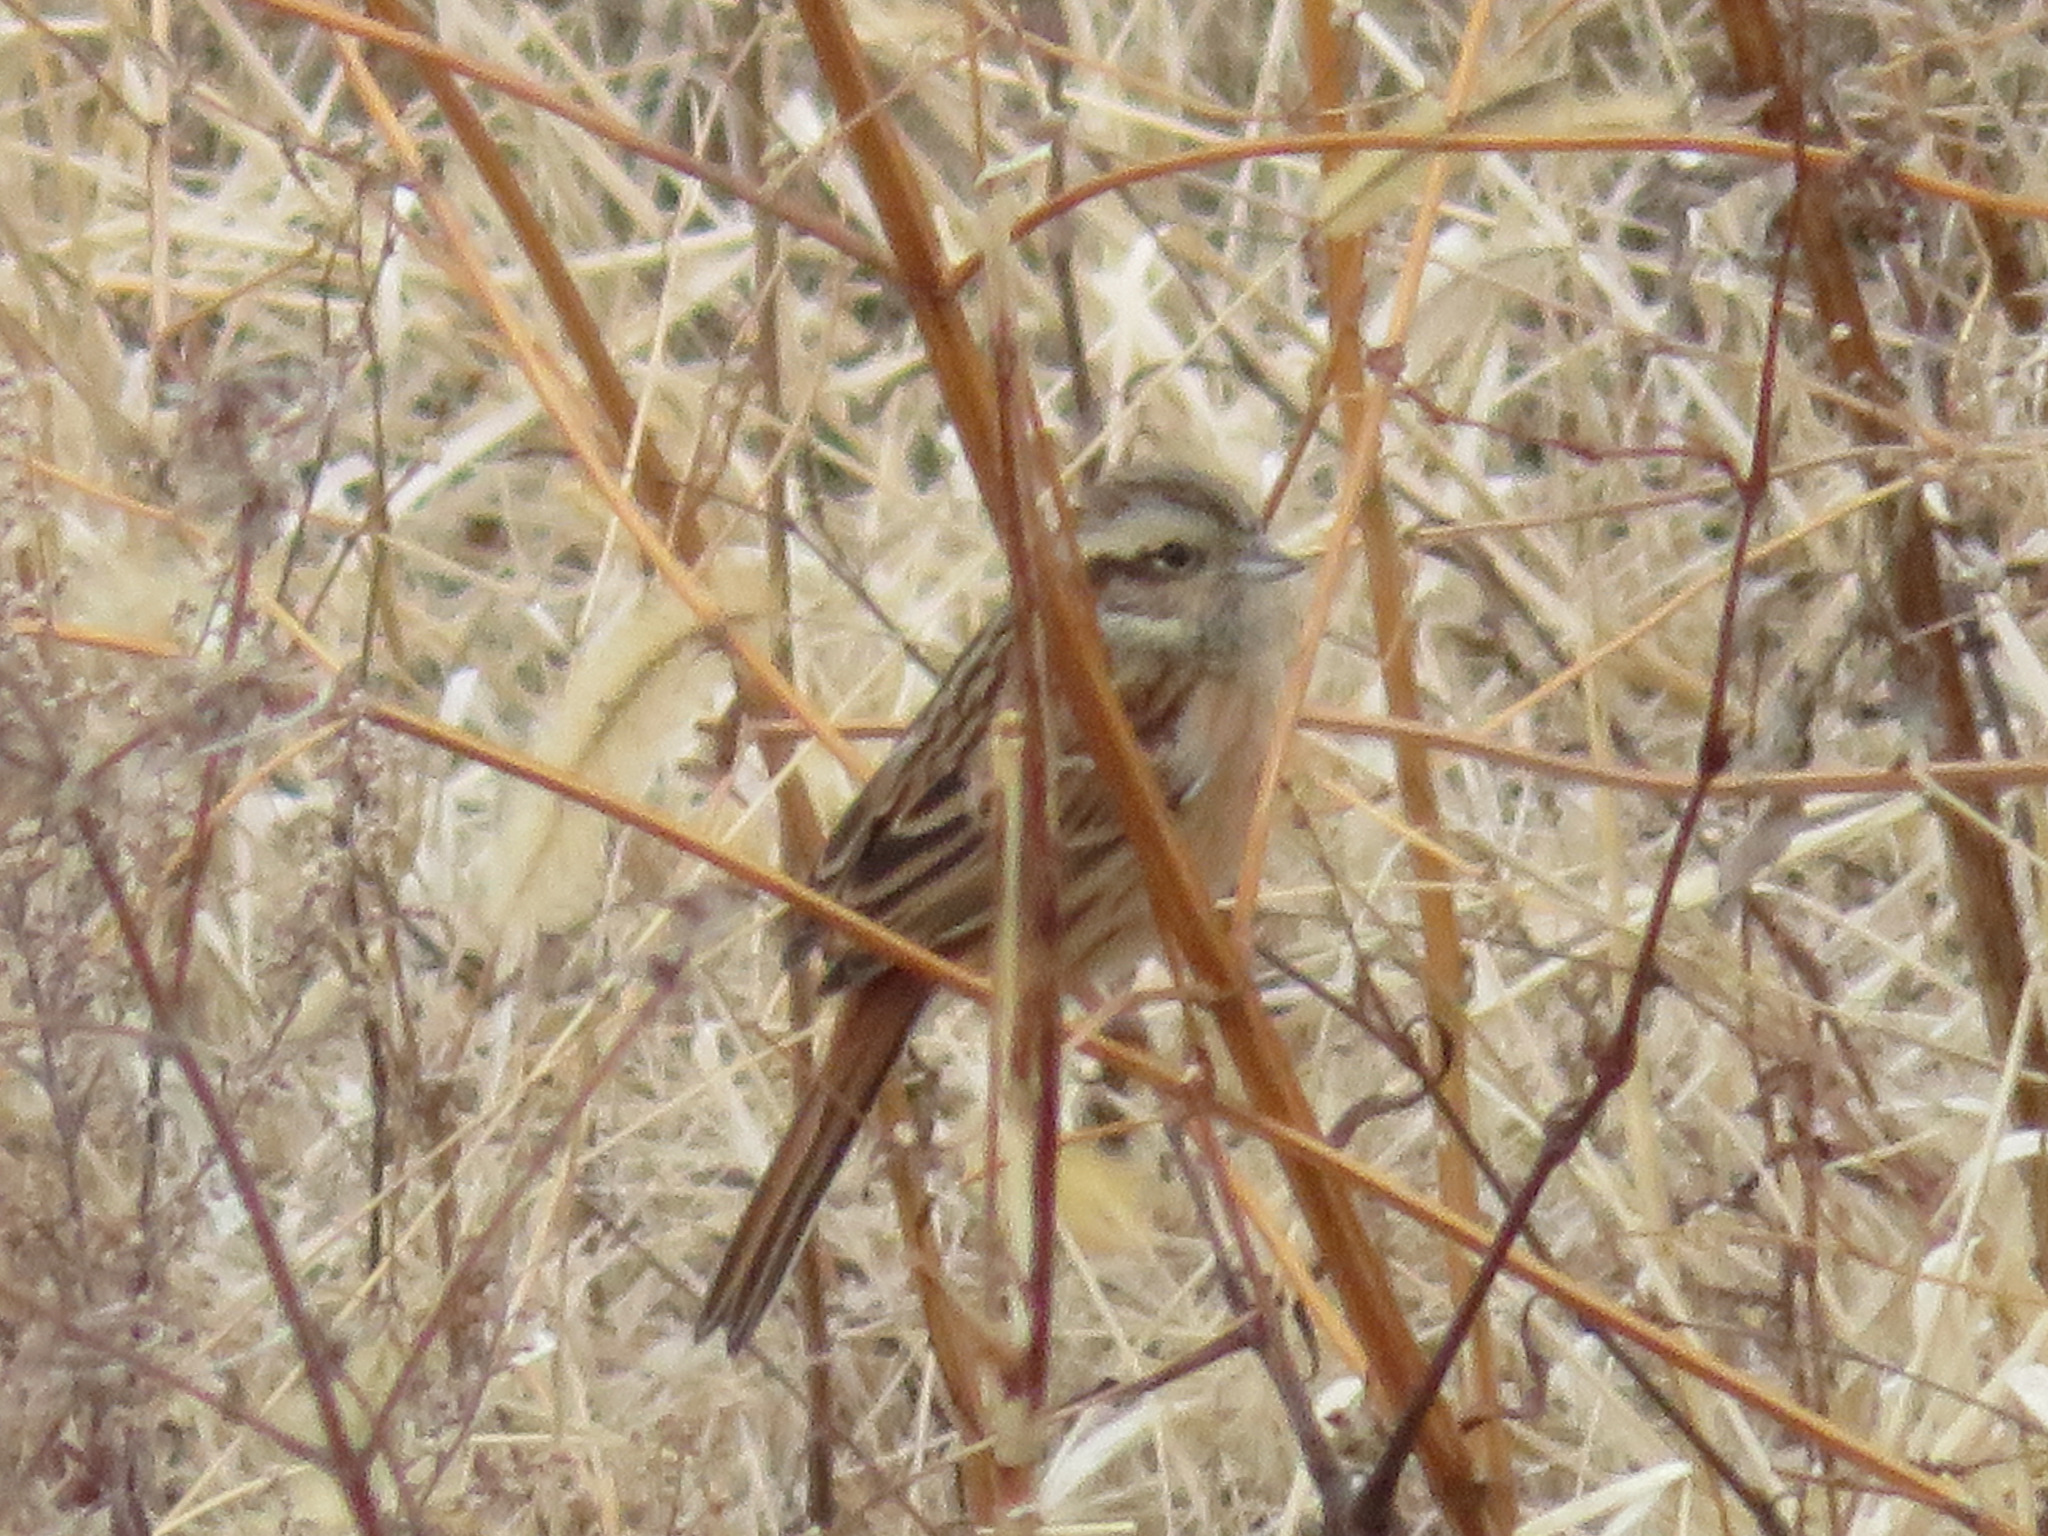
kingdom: Animalia
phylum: Chordata
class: Aves
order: Passeriformes
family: Emberizidae
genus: Emberiza
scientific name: Emberiza cioides
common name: Meadow bunting
